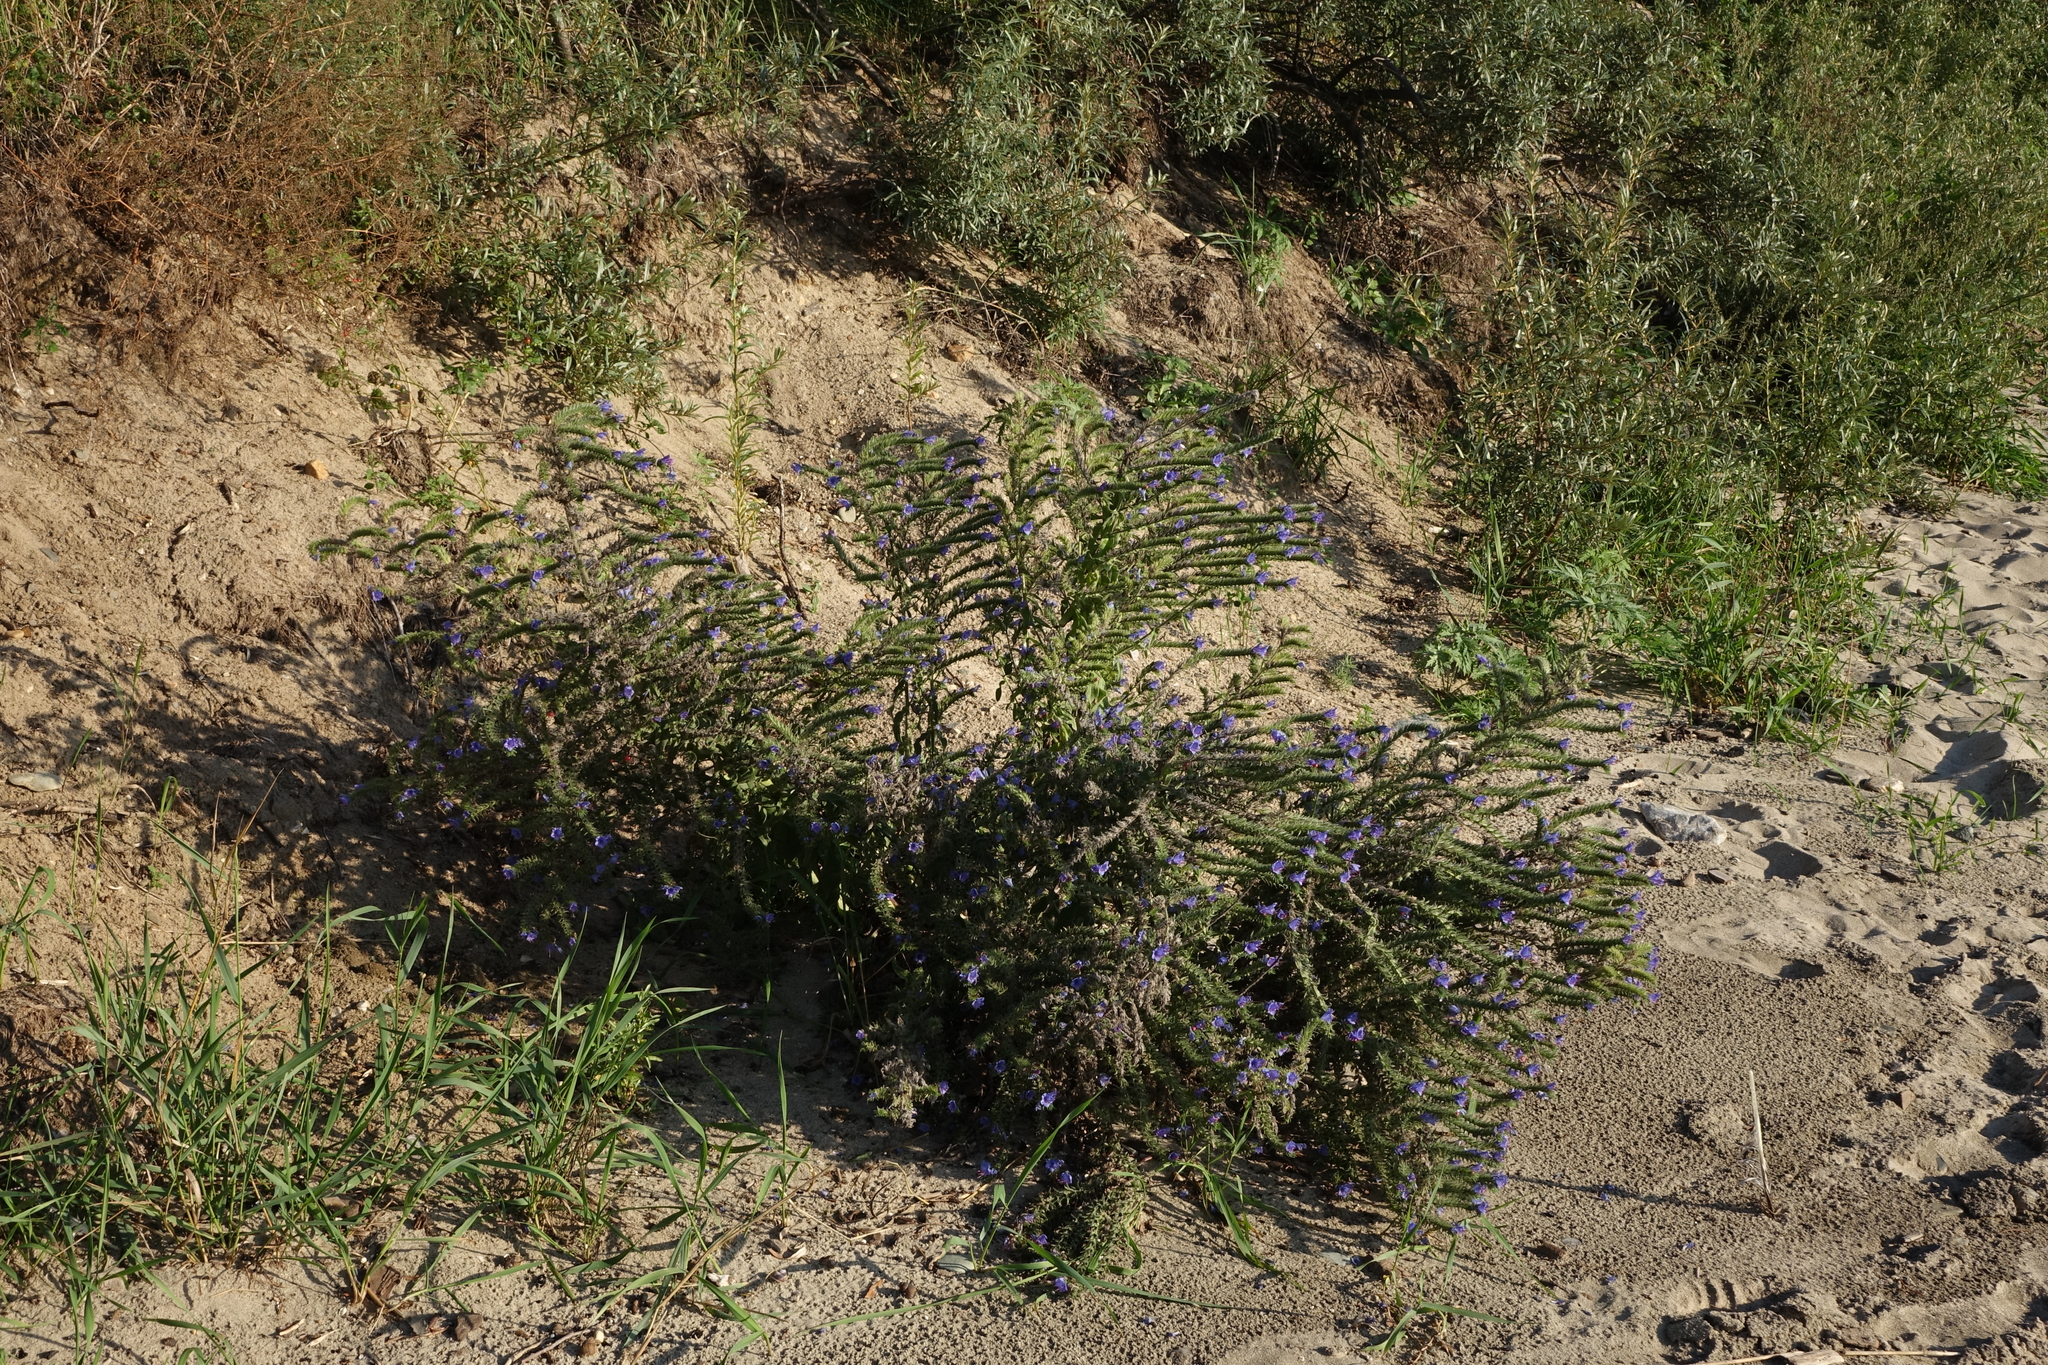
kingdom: Plantae
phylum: Tracheophyta
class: Magnoliopsida
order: Boraginales
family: Boraginaceae
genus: Echium
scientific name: Echium vulgare
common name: Common viper's bugloss
